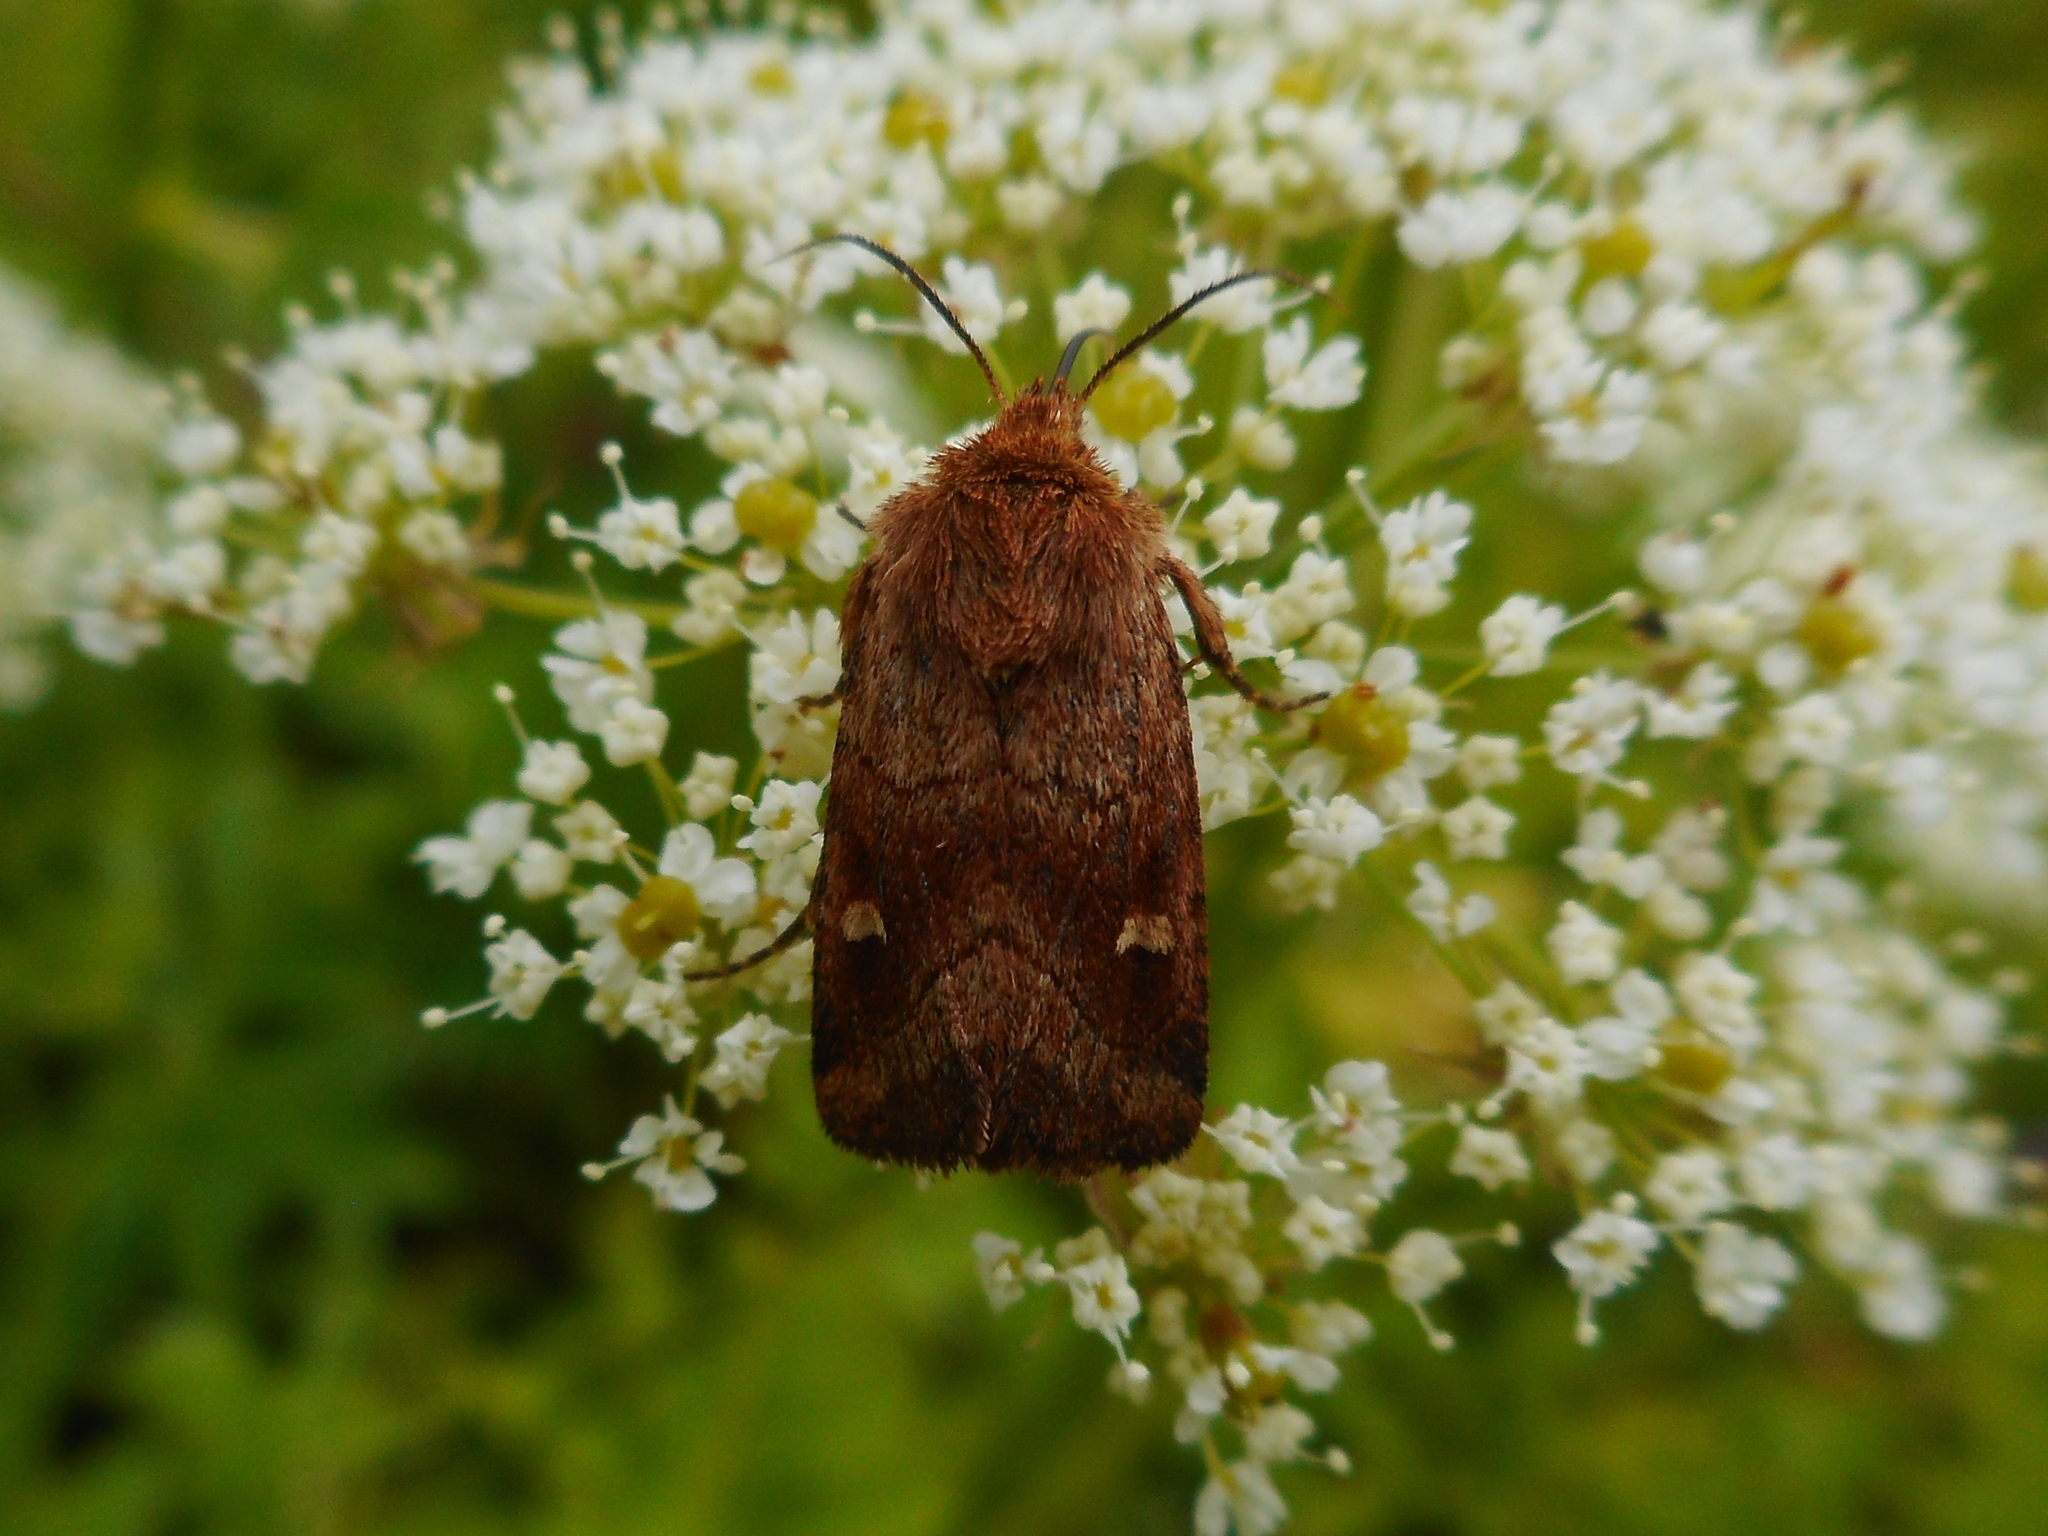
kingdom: Animalia
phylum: Arthropoda
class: Insecta
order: Lepidoptera
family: Noctuidae
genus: Lasionycta
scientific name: Lasionycta Eriopygodes imbecillus
